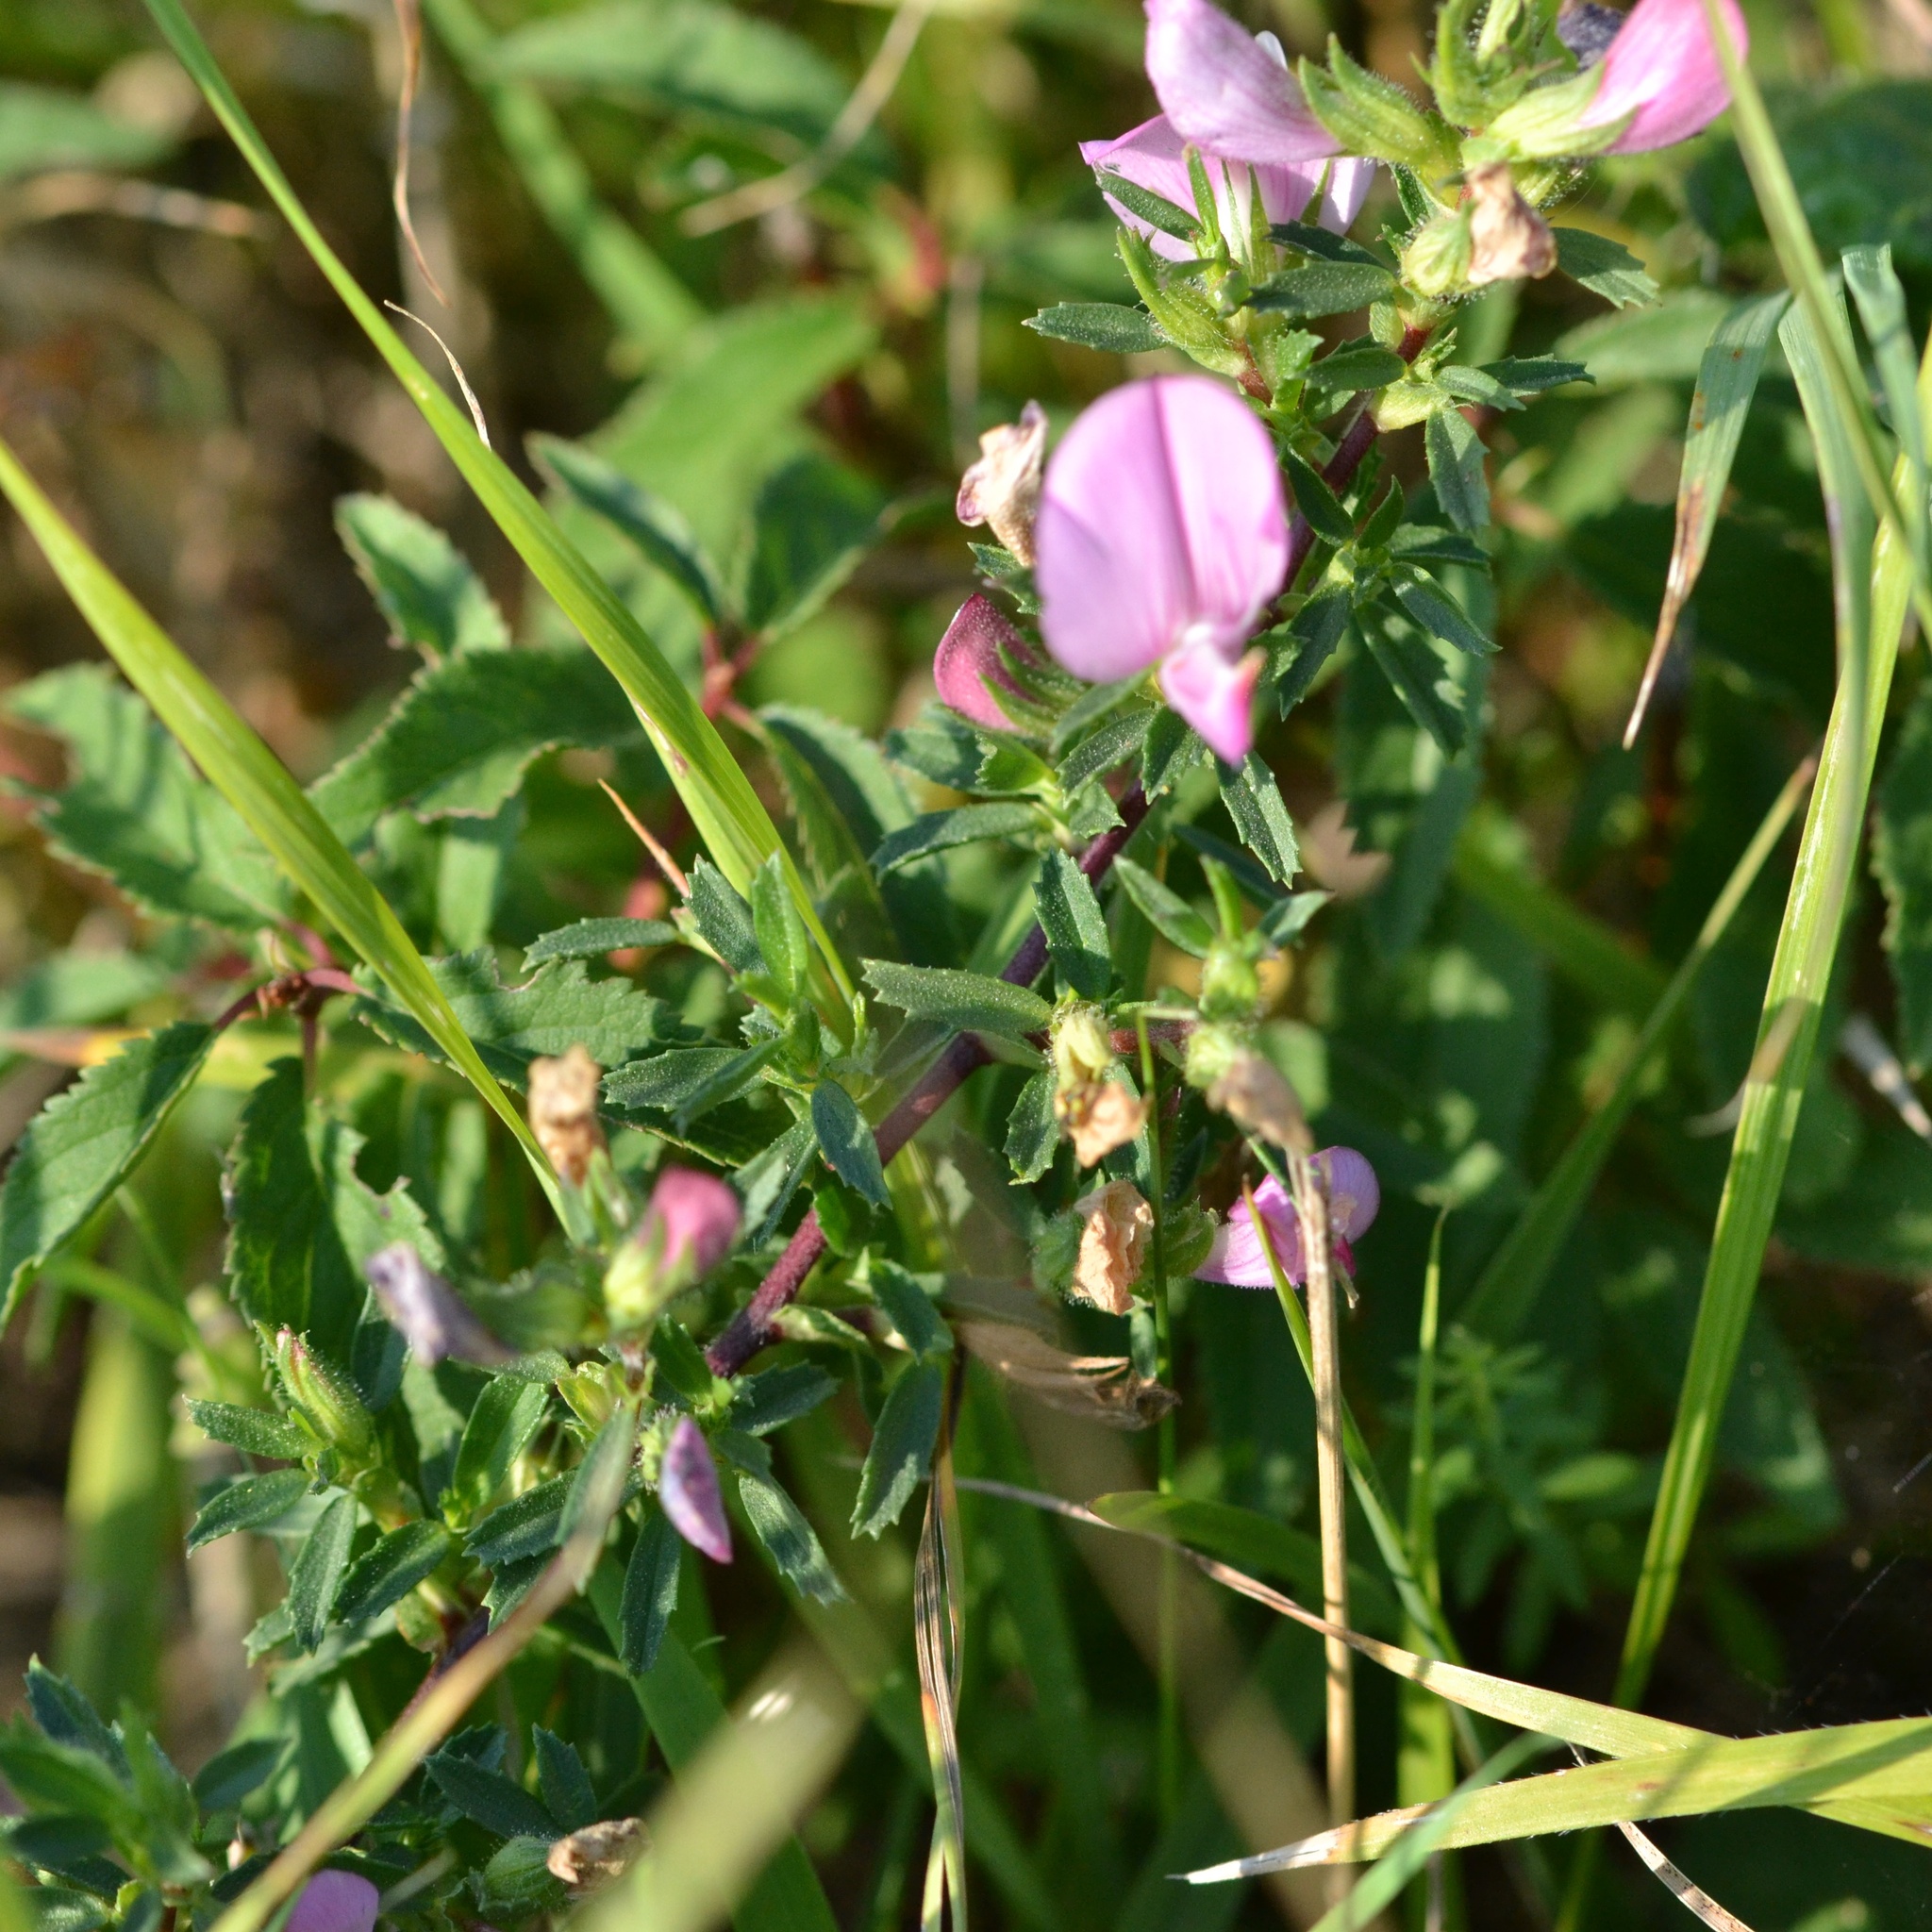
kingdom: Plantae
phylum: Tracheophyta
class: Magnoliopsida
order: Fabales
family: Fabaceae
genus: Ononis
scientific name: Ononis spinosa
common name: Spiny restharrow
